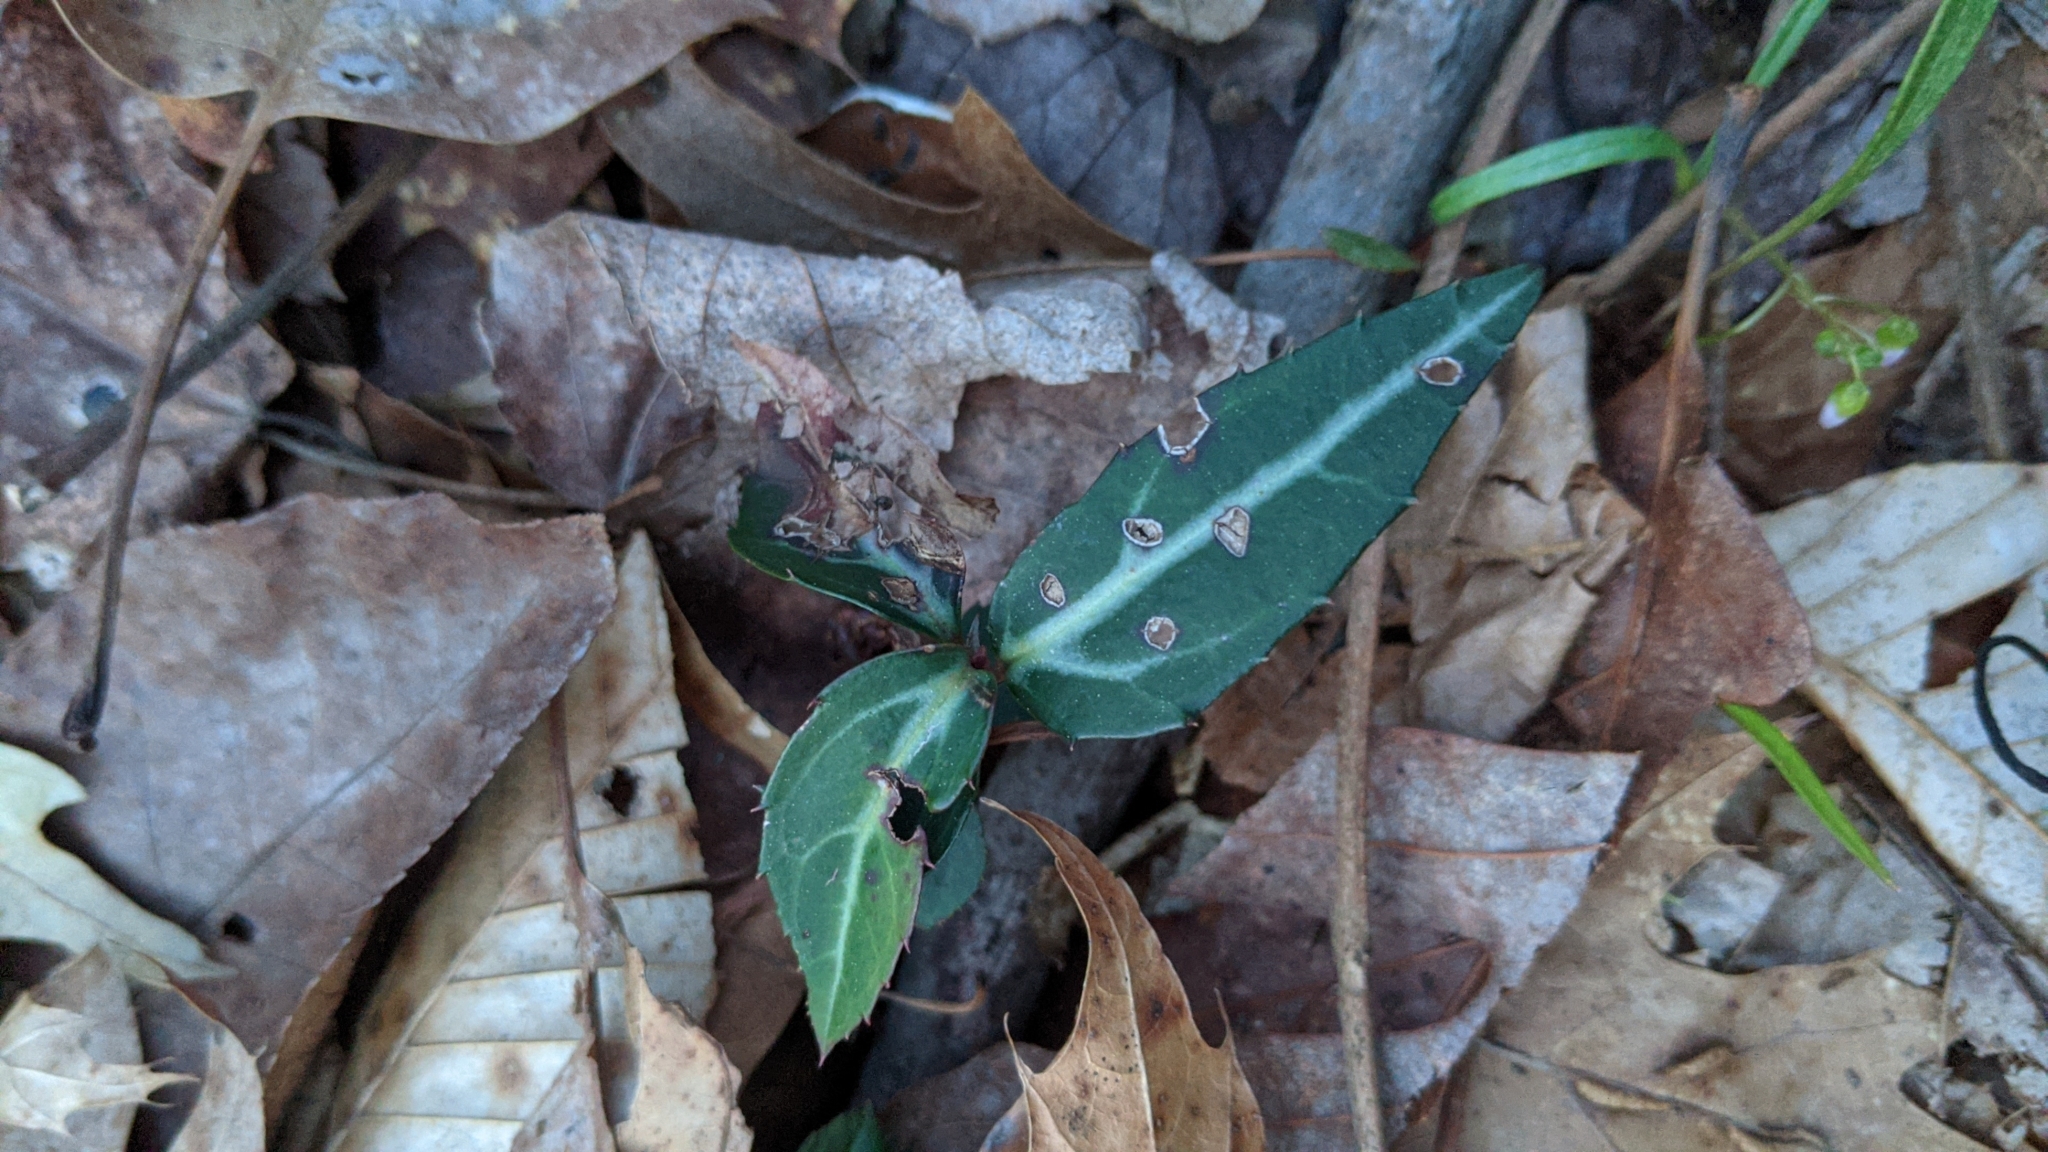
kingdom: Plantae
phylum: Tracheophyta
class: Magnoliopsida
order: Ericales
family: Ericaceae
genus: Chimaphila
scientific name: Chimaphila maculata
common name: Spotted pipsissewa
